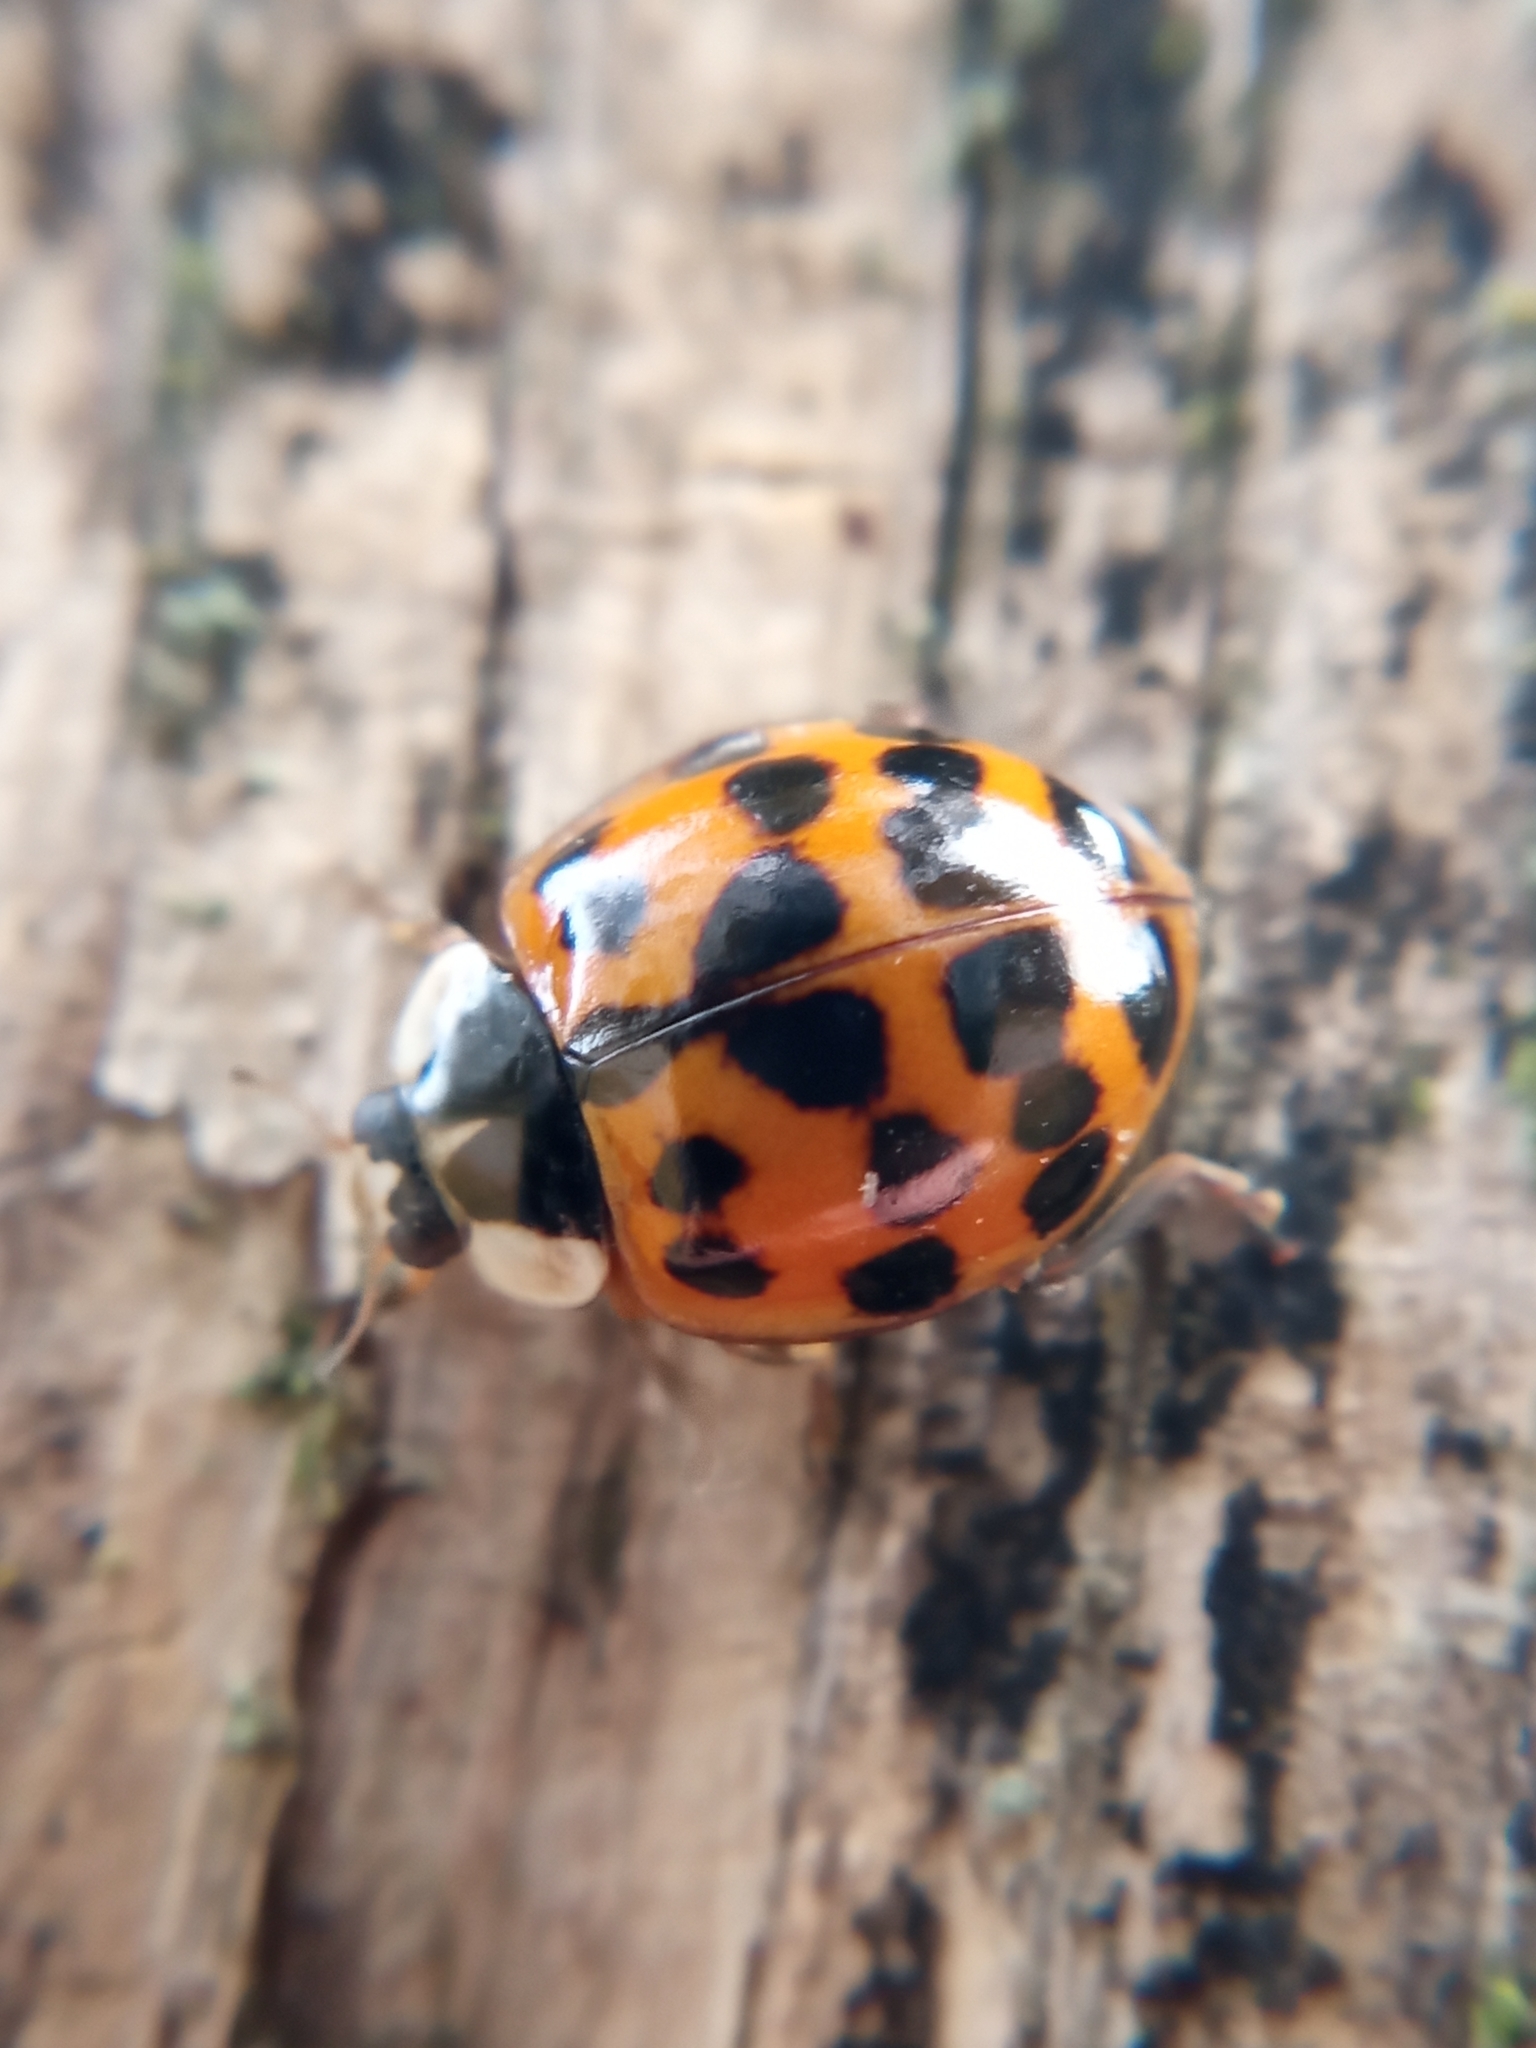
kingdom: Animalia
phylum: Arthropoda
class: Insecta
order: Coleoptera
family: Coccinellidae
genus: Harmonia
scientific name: Harmonia axyridis
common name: Harlequin ladybird
